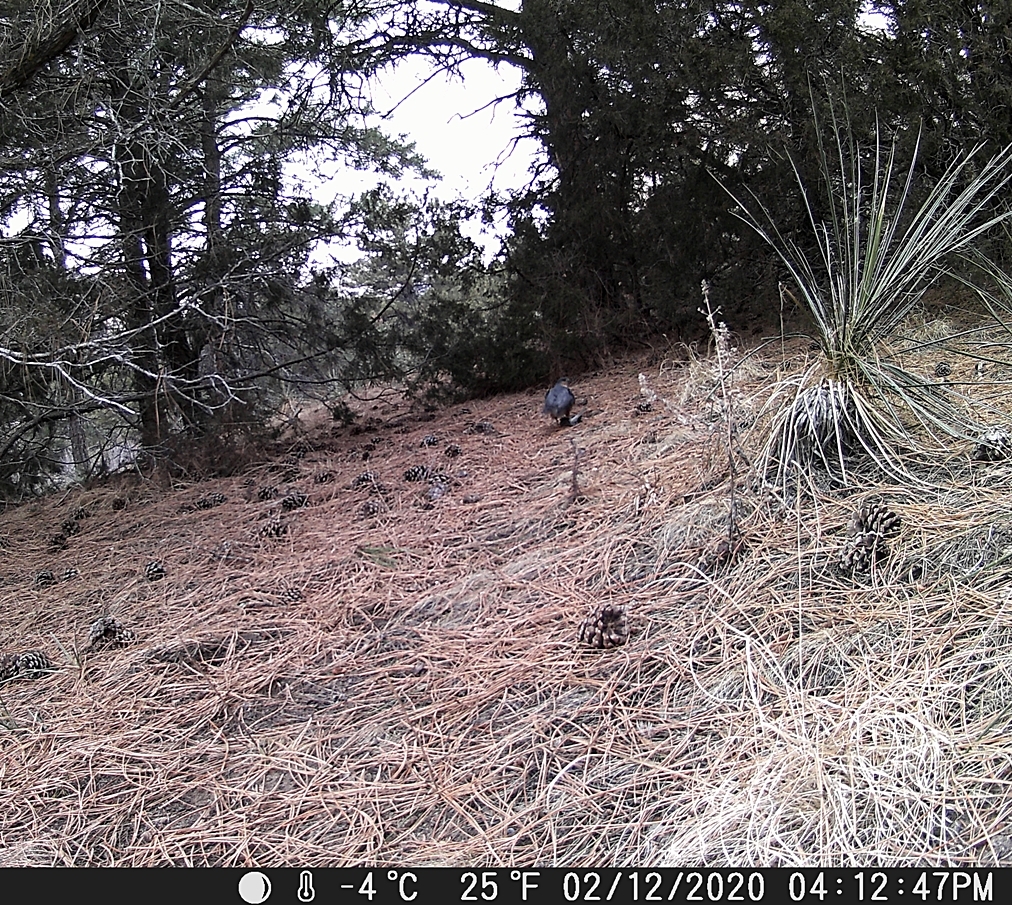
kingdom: Animalia
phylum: Chordata
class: Aves
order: Accipitriformes
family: Accipitridae
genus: Accipiter
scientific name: Accipiter striatus
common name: Sharp-shinned hawk
